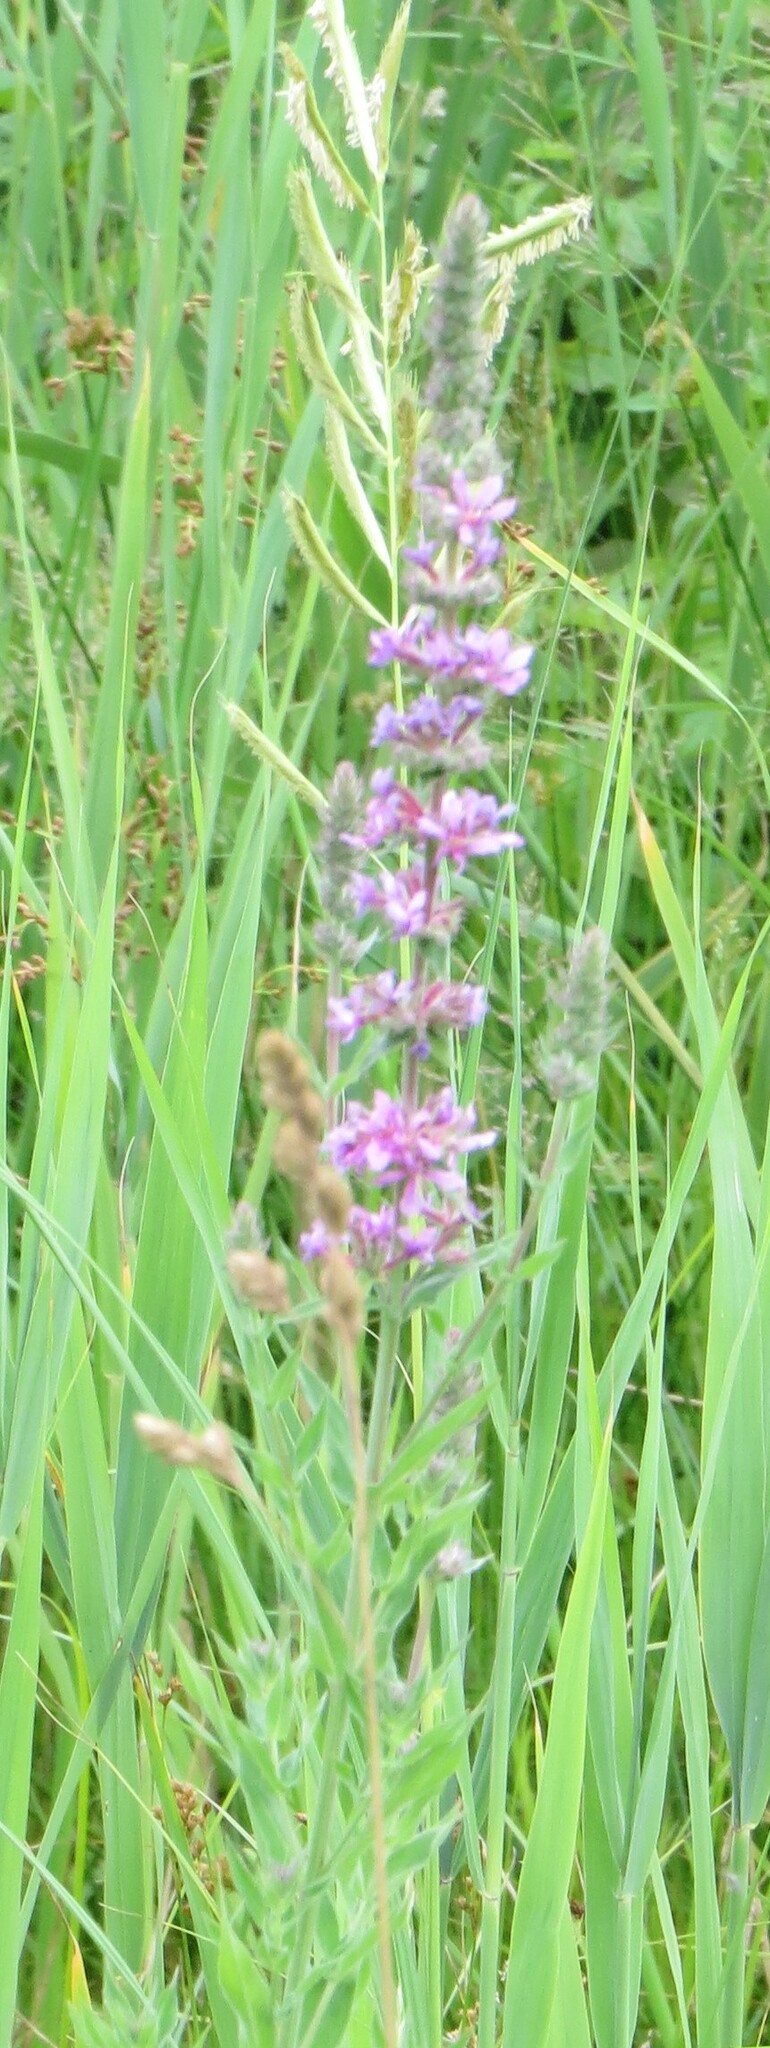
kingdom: Plantae
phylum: Tracheophyta
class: Magnoliopsida
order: Myrtales
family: Lythraceae
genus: Lythrum
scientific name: Lythrum salicaria
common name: Purple loosestrife
